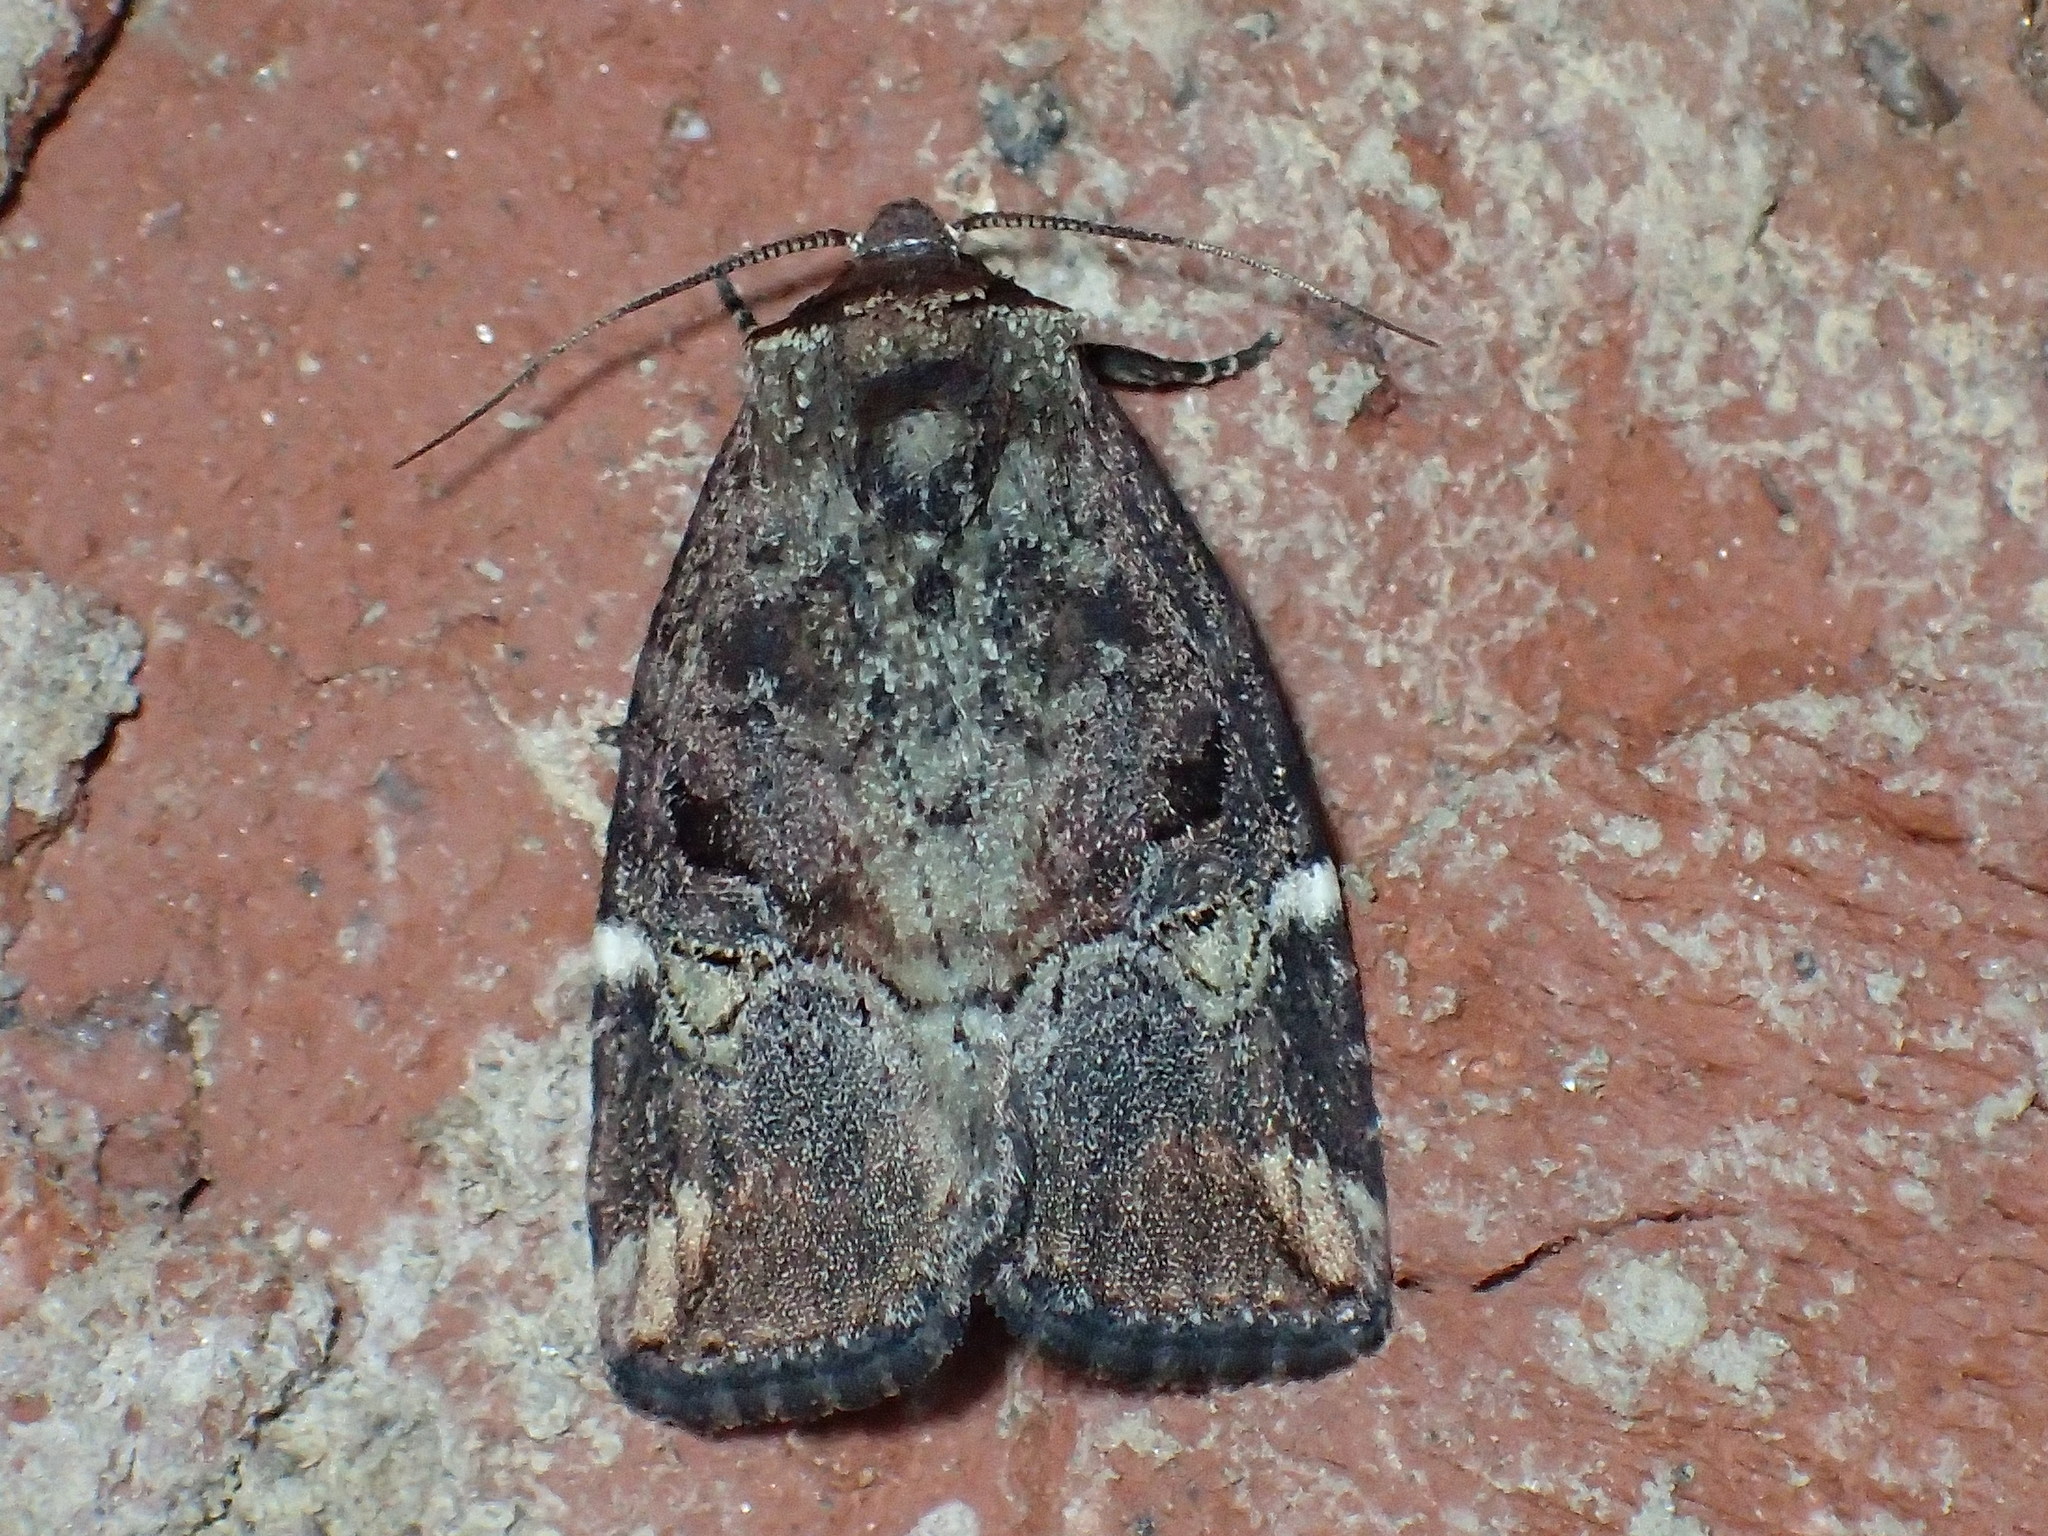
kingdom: Animalia
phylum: Arthropoda
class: Insecta
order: Lepidoptera
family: Noctuidae
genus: Elaphria
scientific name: Elaphria versicolor
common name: Fir harlequin
